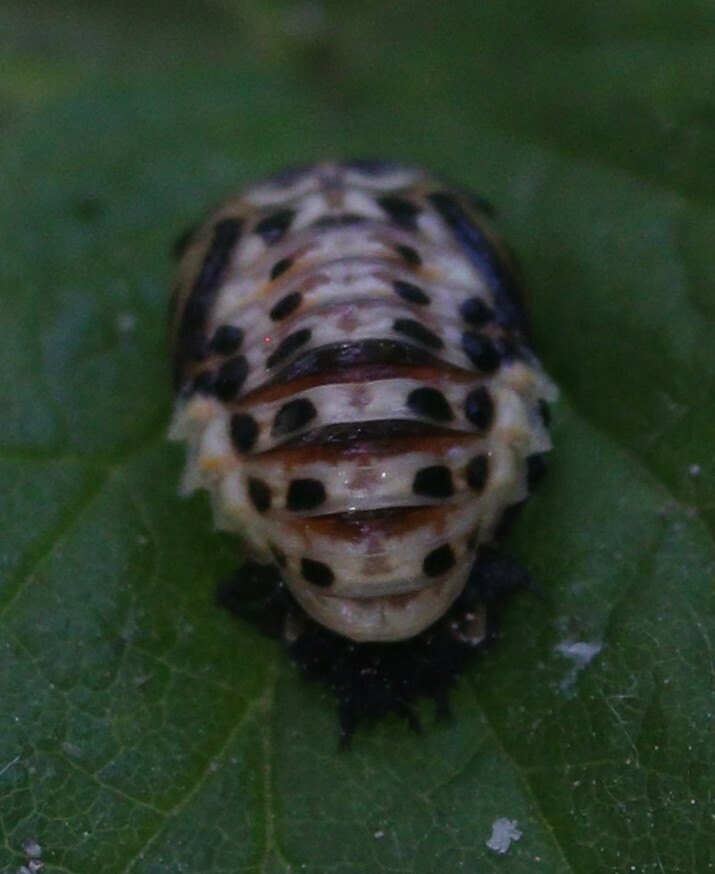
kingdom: Animalia
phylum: Arthropoda
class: Insecta
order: Coleoptera
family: Coccinellidae
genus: Anatis
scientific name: Anatis ocellata
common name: Eyed ladybird
